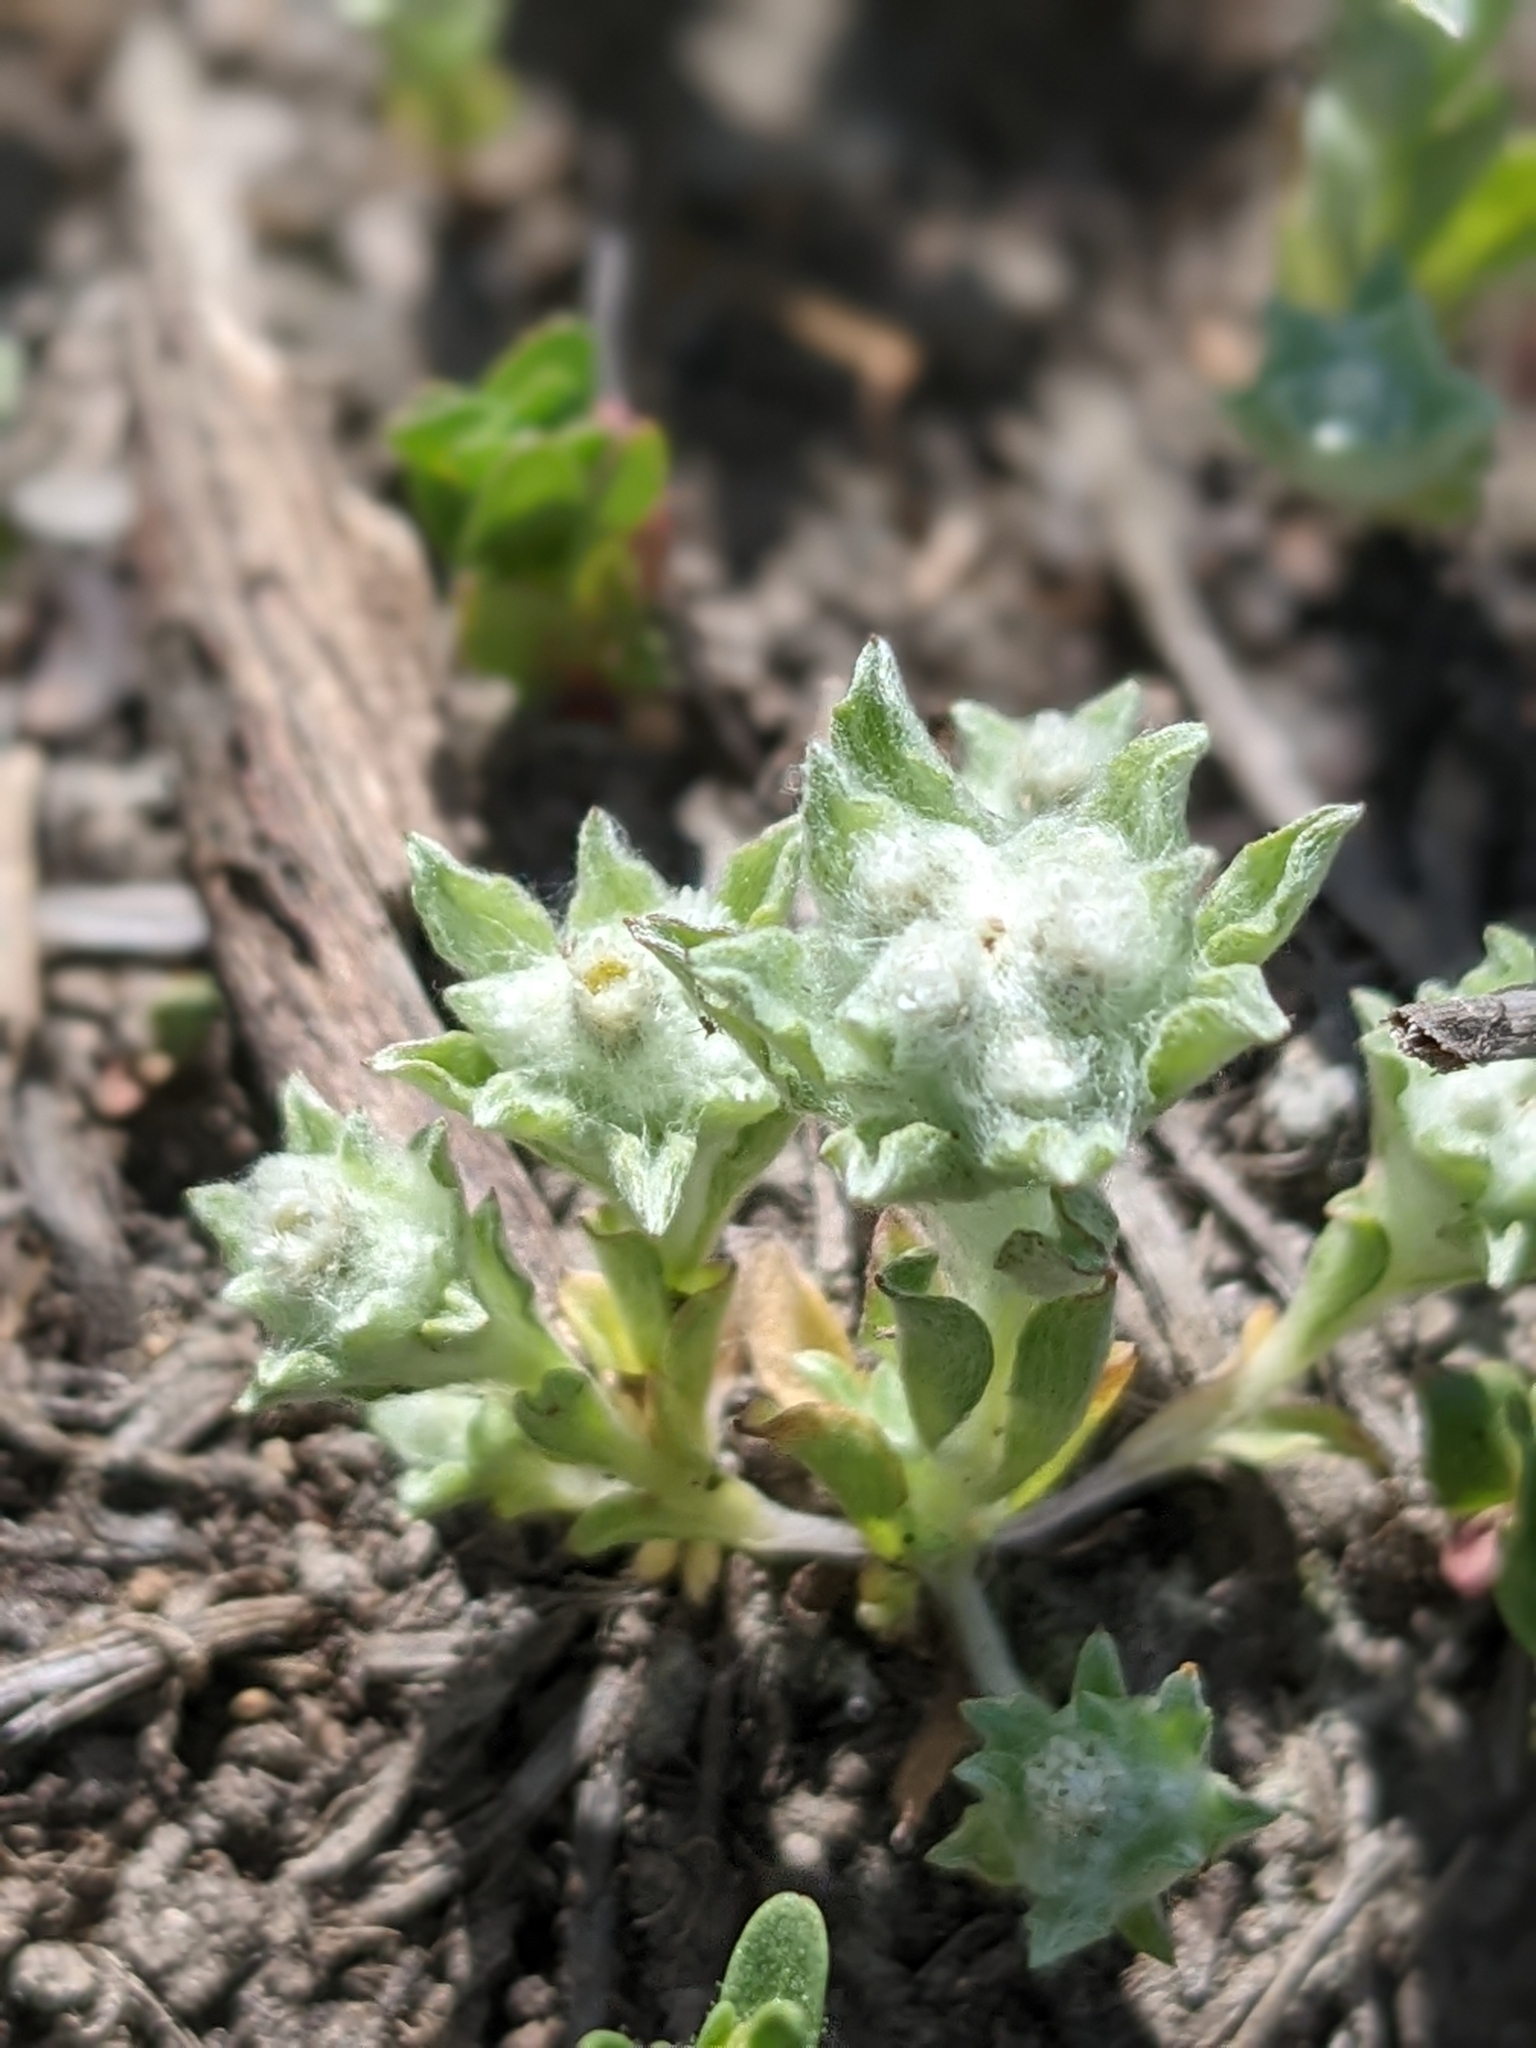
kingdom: Plantae
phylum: Tracheophyta
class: Magnoliopsida
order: Asterales
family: Asteraceae
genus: Gnaphalium
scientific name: Gnaphalium palustre
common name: Western marsh cudweed
